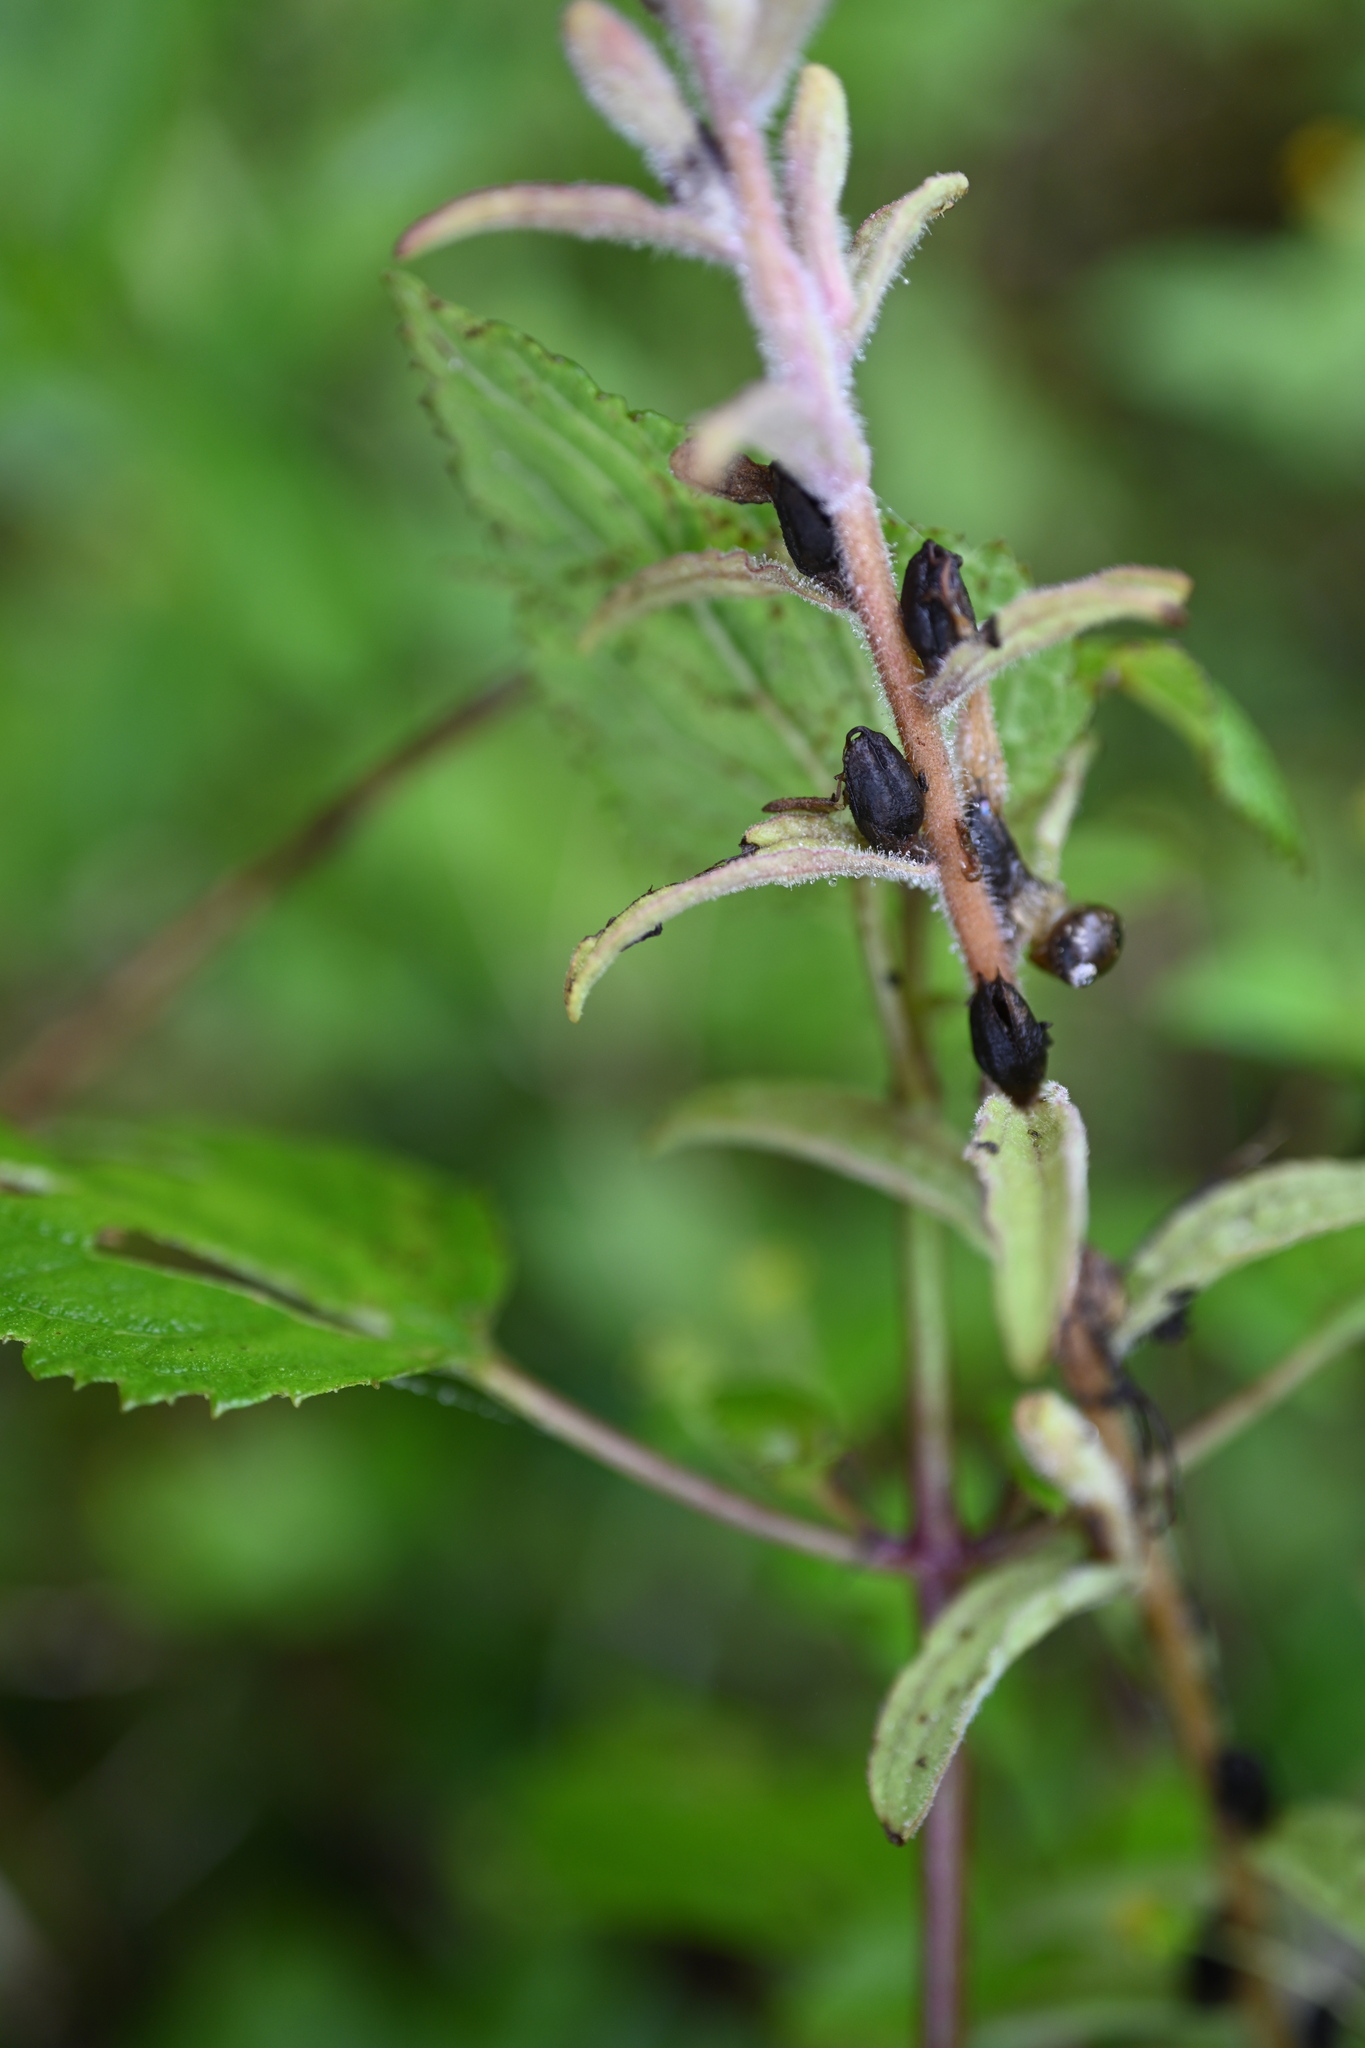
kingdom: Plantae
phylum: Tracheophyta
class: Magnoliopsida
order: Lamiales
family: Orobanchaceae
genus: Castilleja
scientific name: Castilleja arvensis
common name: Indian paintbrush
